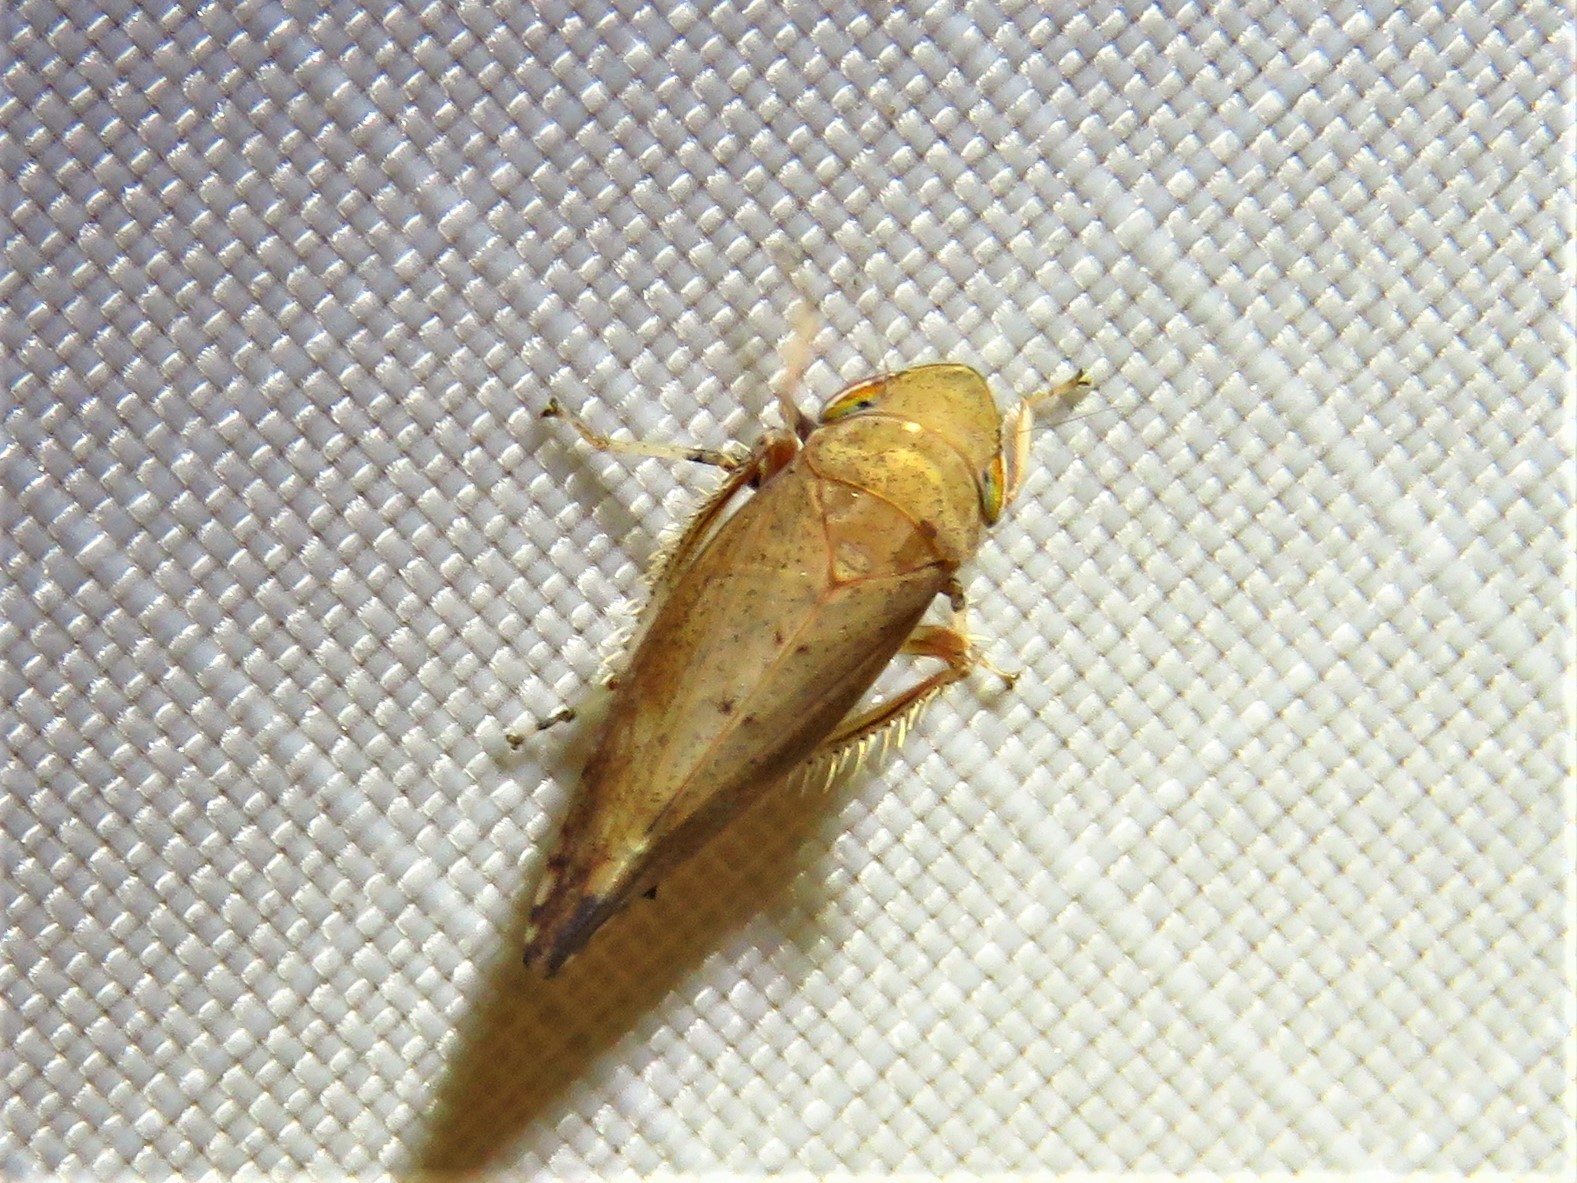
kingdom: Animalia
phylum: Arthropoda
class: Insecta
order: Hemiptera
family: Cicadellidae
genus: Fieberiella
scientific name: Fieberiella florii
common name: Flor’s leafhopper
